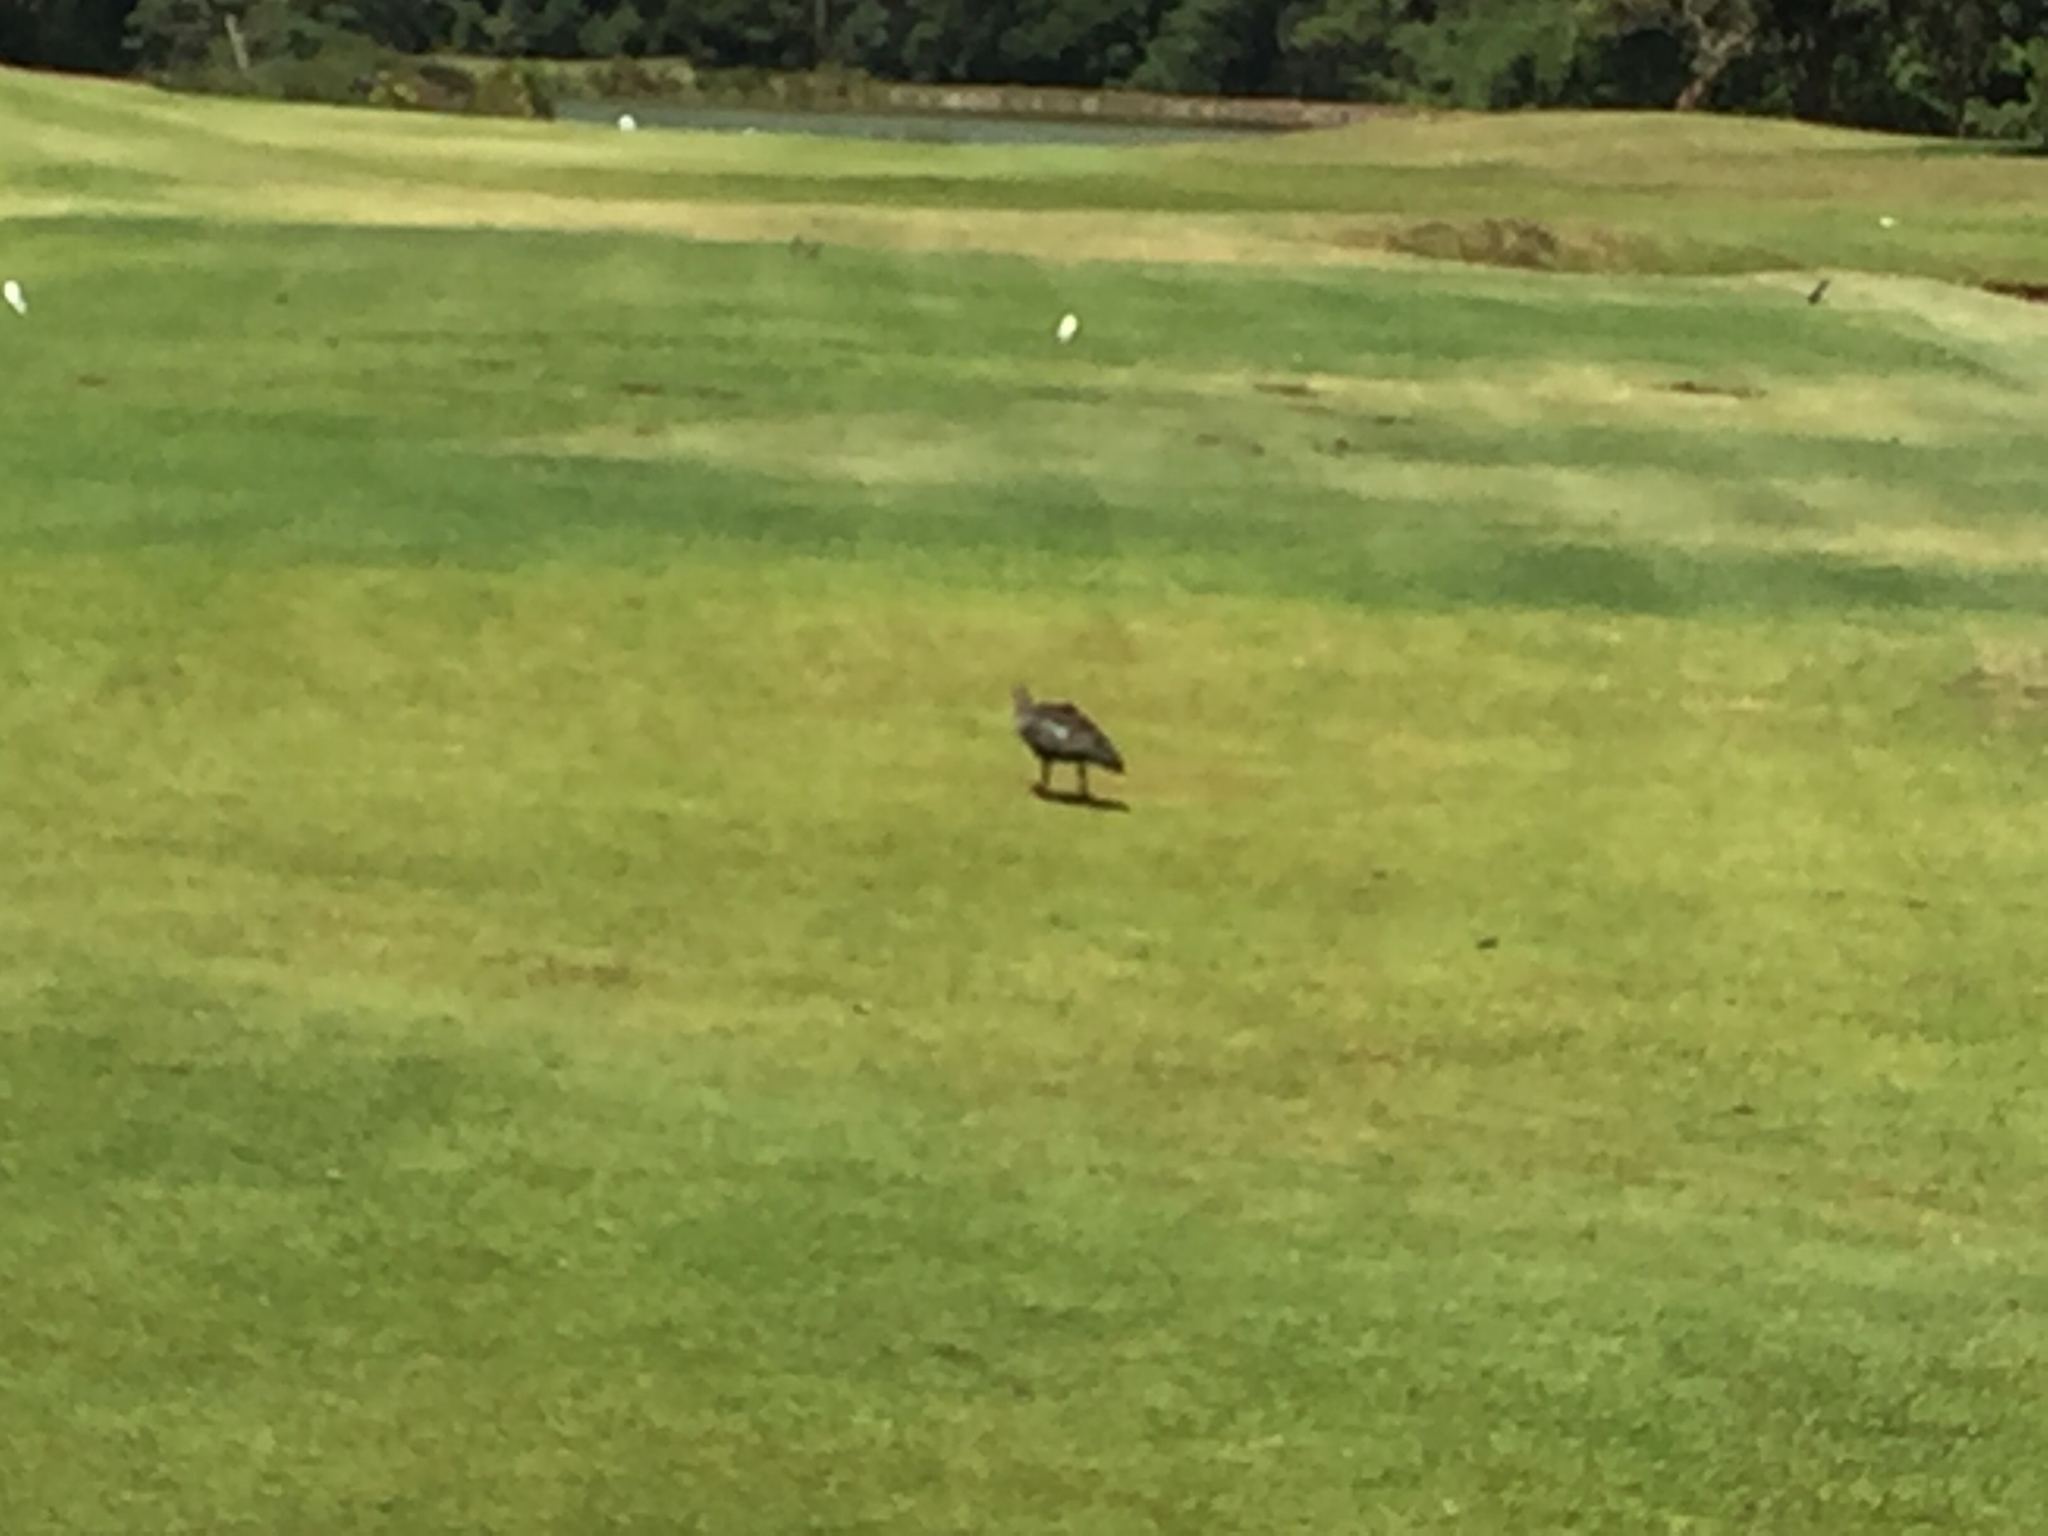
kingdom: Animalia
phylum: Chordata
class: Aves
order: Pelecaniformes
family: Threskiornithidae
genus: Bostrychia
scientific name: Bostrychia hagedash
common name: Hadada ibis
